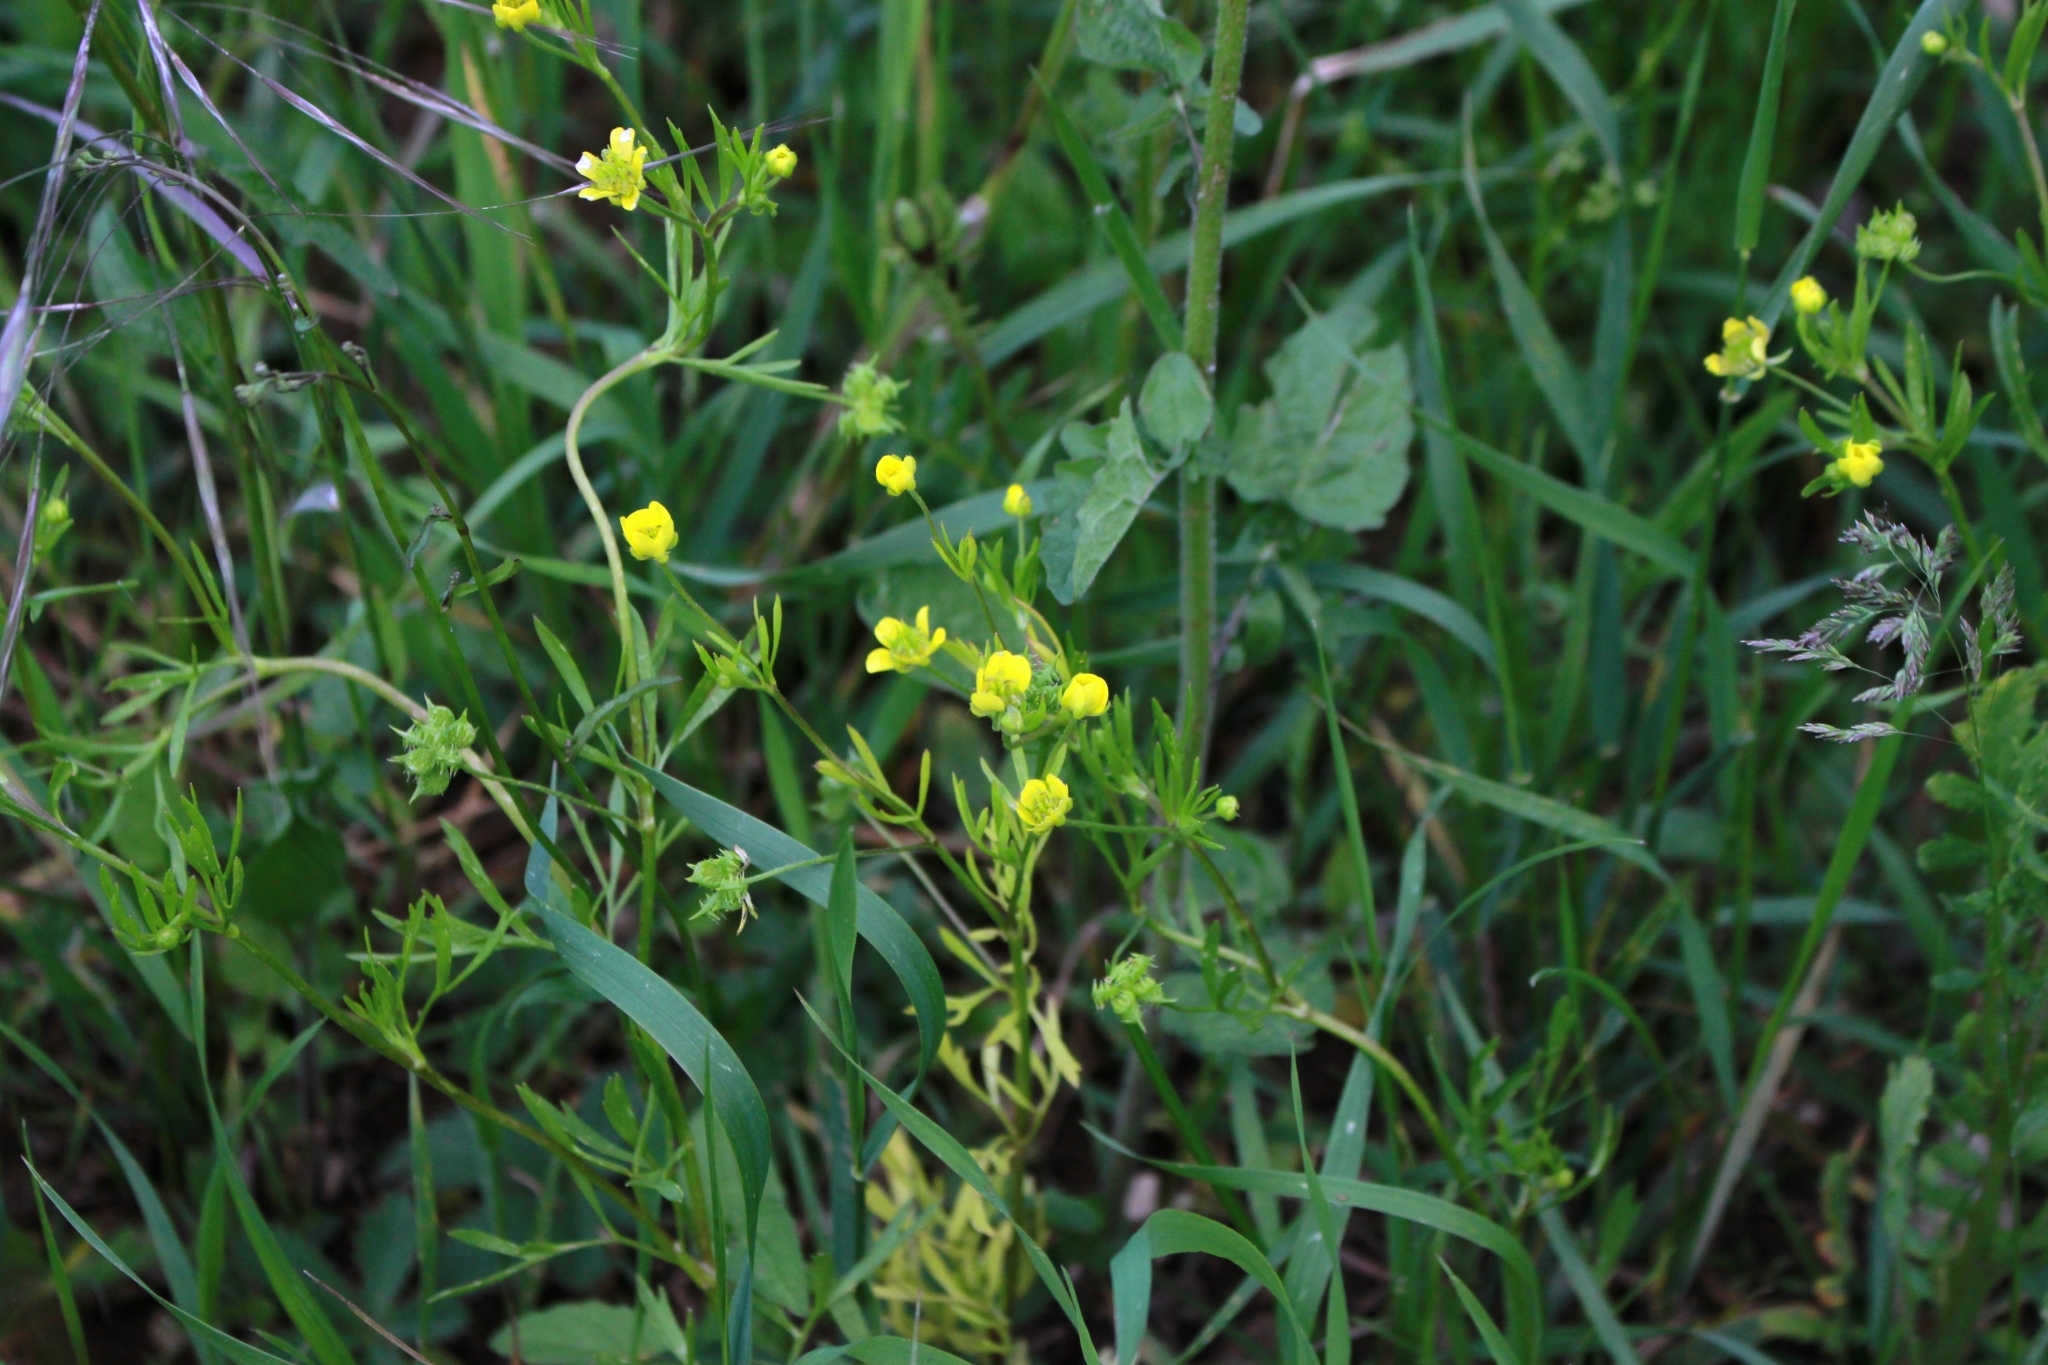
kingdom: Plantae
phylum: Tracheophyta
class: Magnoliopsida
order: Ranunculales
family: Ranunculaceae
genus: Ranunculus
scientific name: Ranunculus arvensis
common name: Corn buttercup
